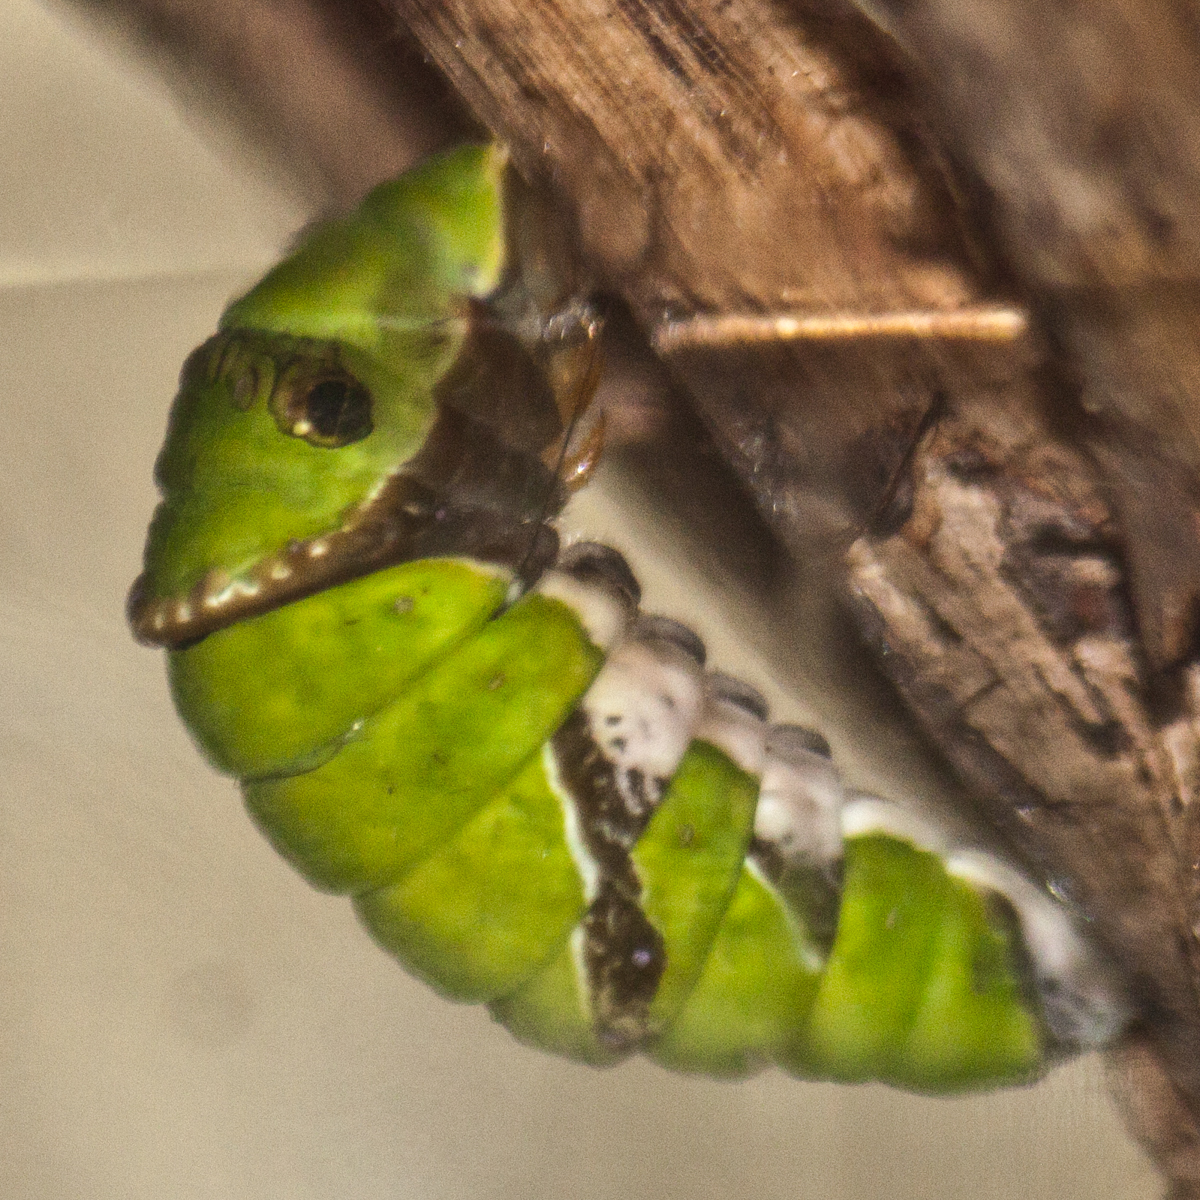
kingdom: Animalia
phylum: Arthropoda
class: Insecta
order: Lepidoptera
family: Papilionidae
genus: Papilio
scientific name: Papilio polytes
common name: Common mormon
